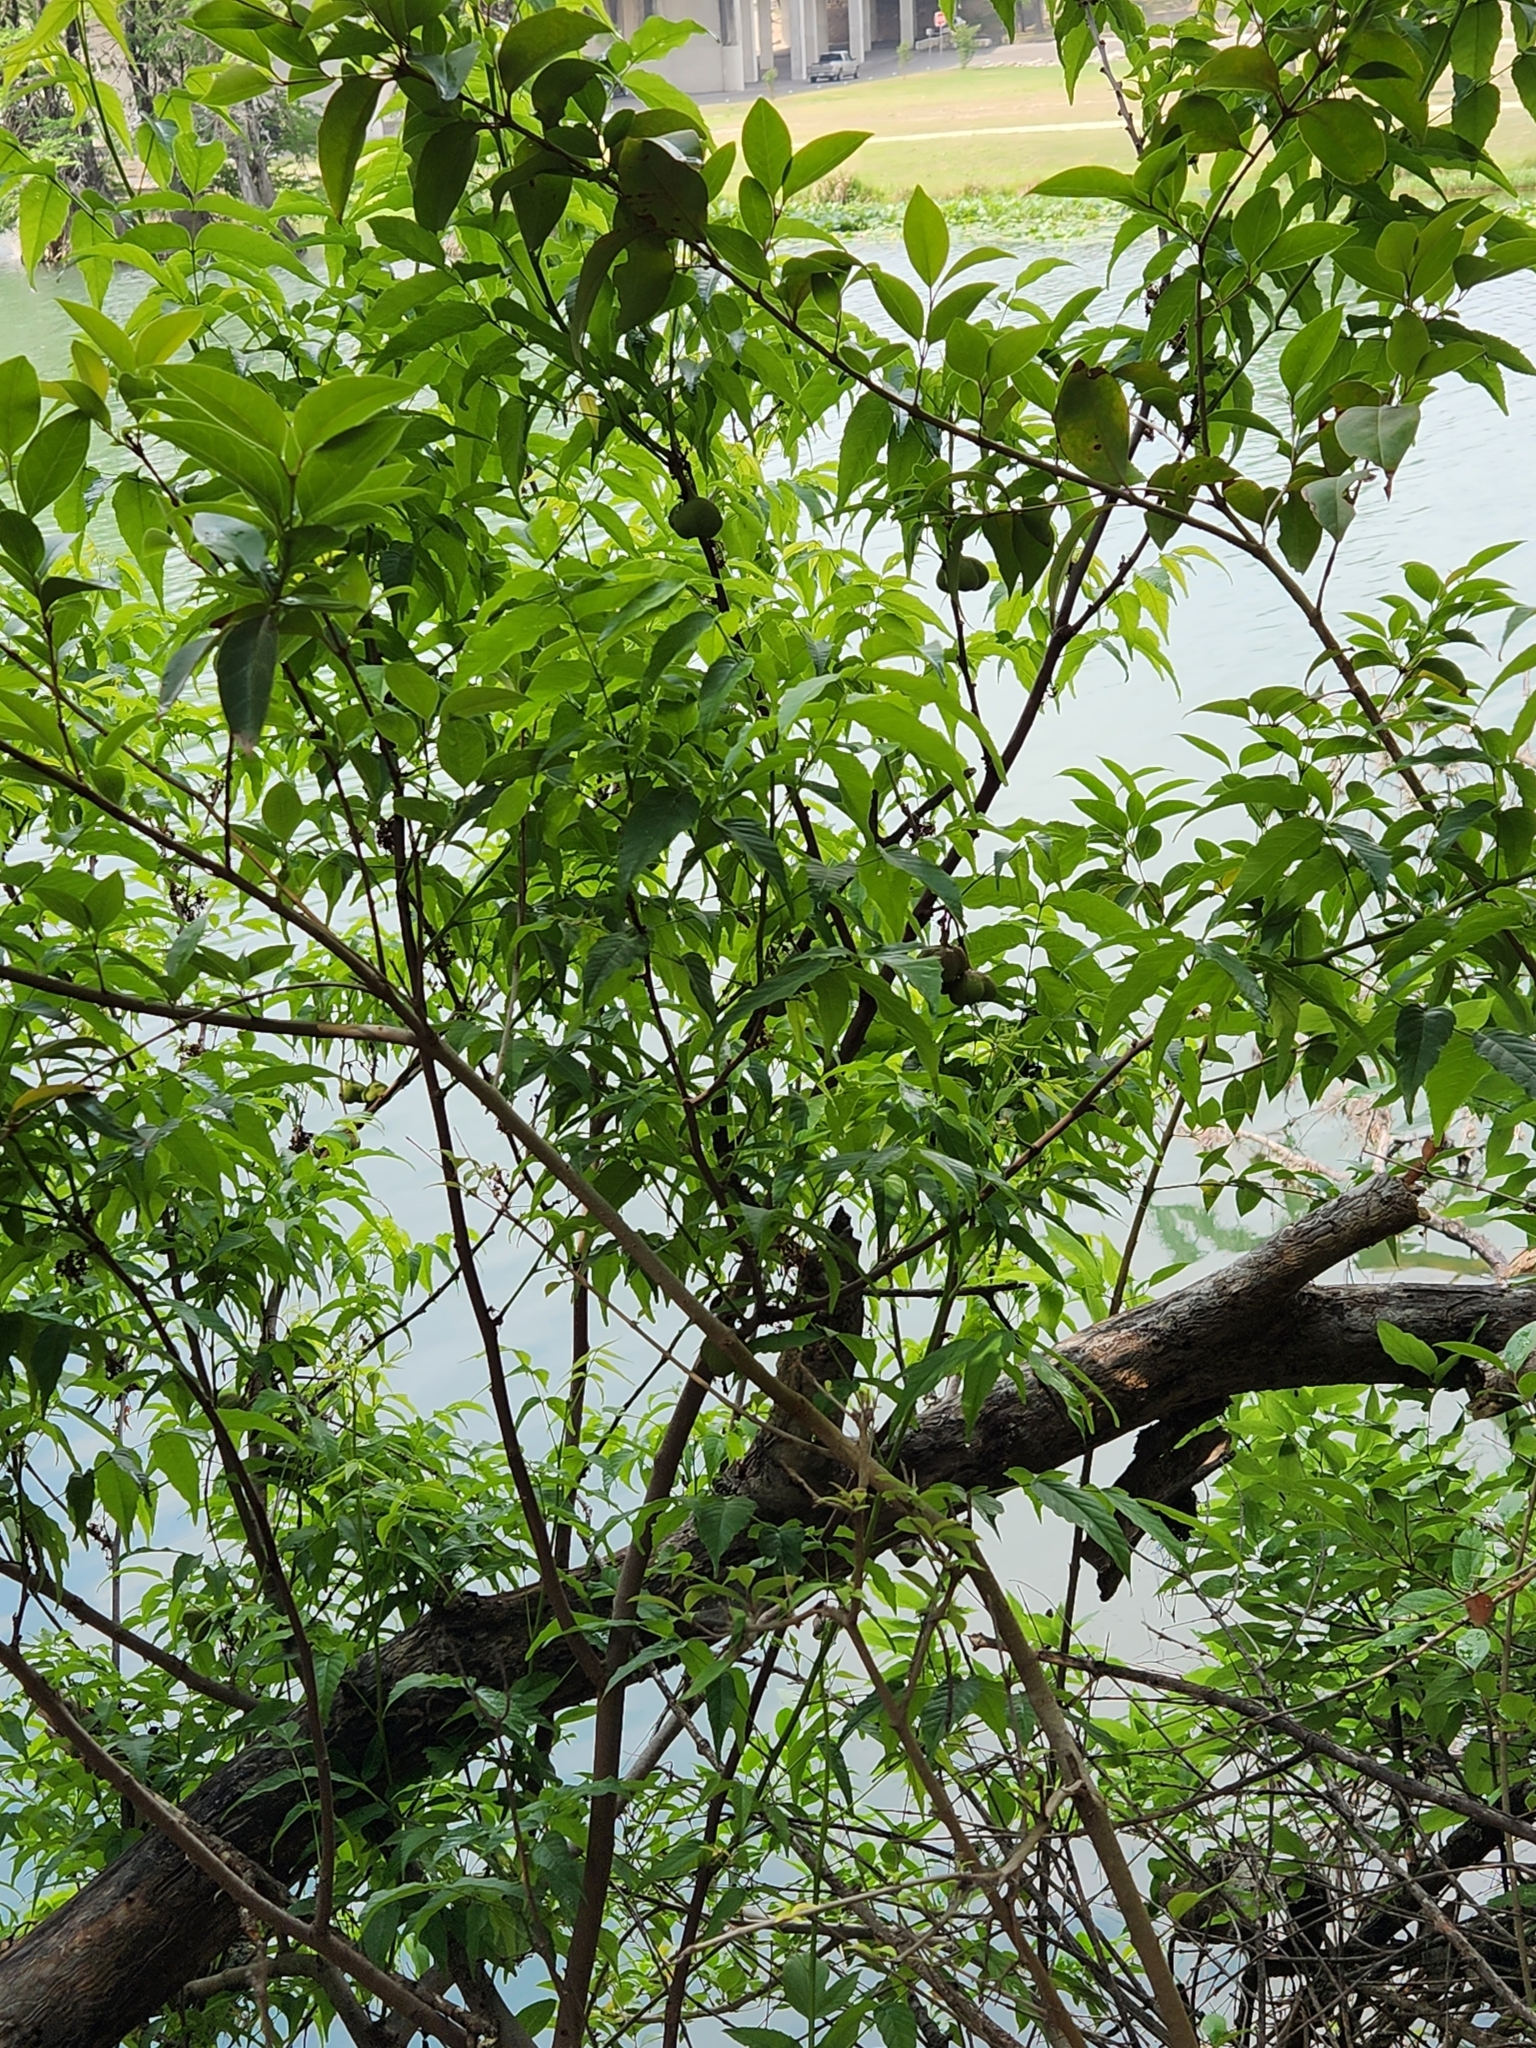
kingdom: Plantae
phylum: Tracheophyta
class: Magnoliopsida
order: Sapindales
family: Sapindaceae
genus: Ungnadia
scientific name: Ungnadia speciosa
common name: Texas-buckeye
